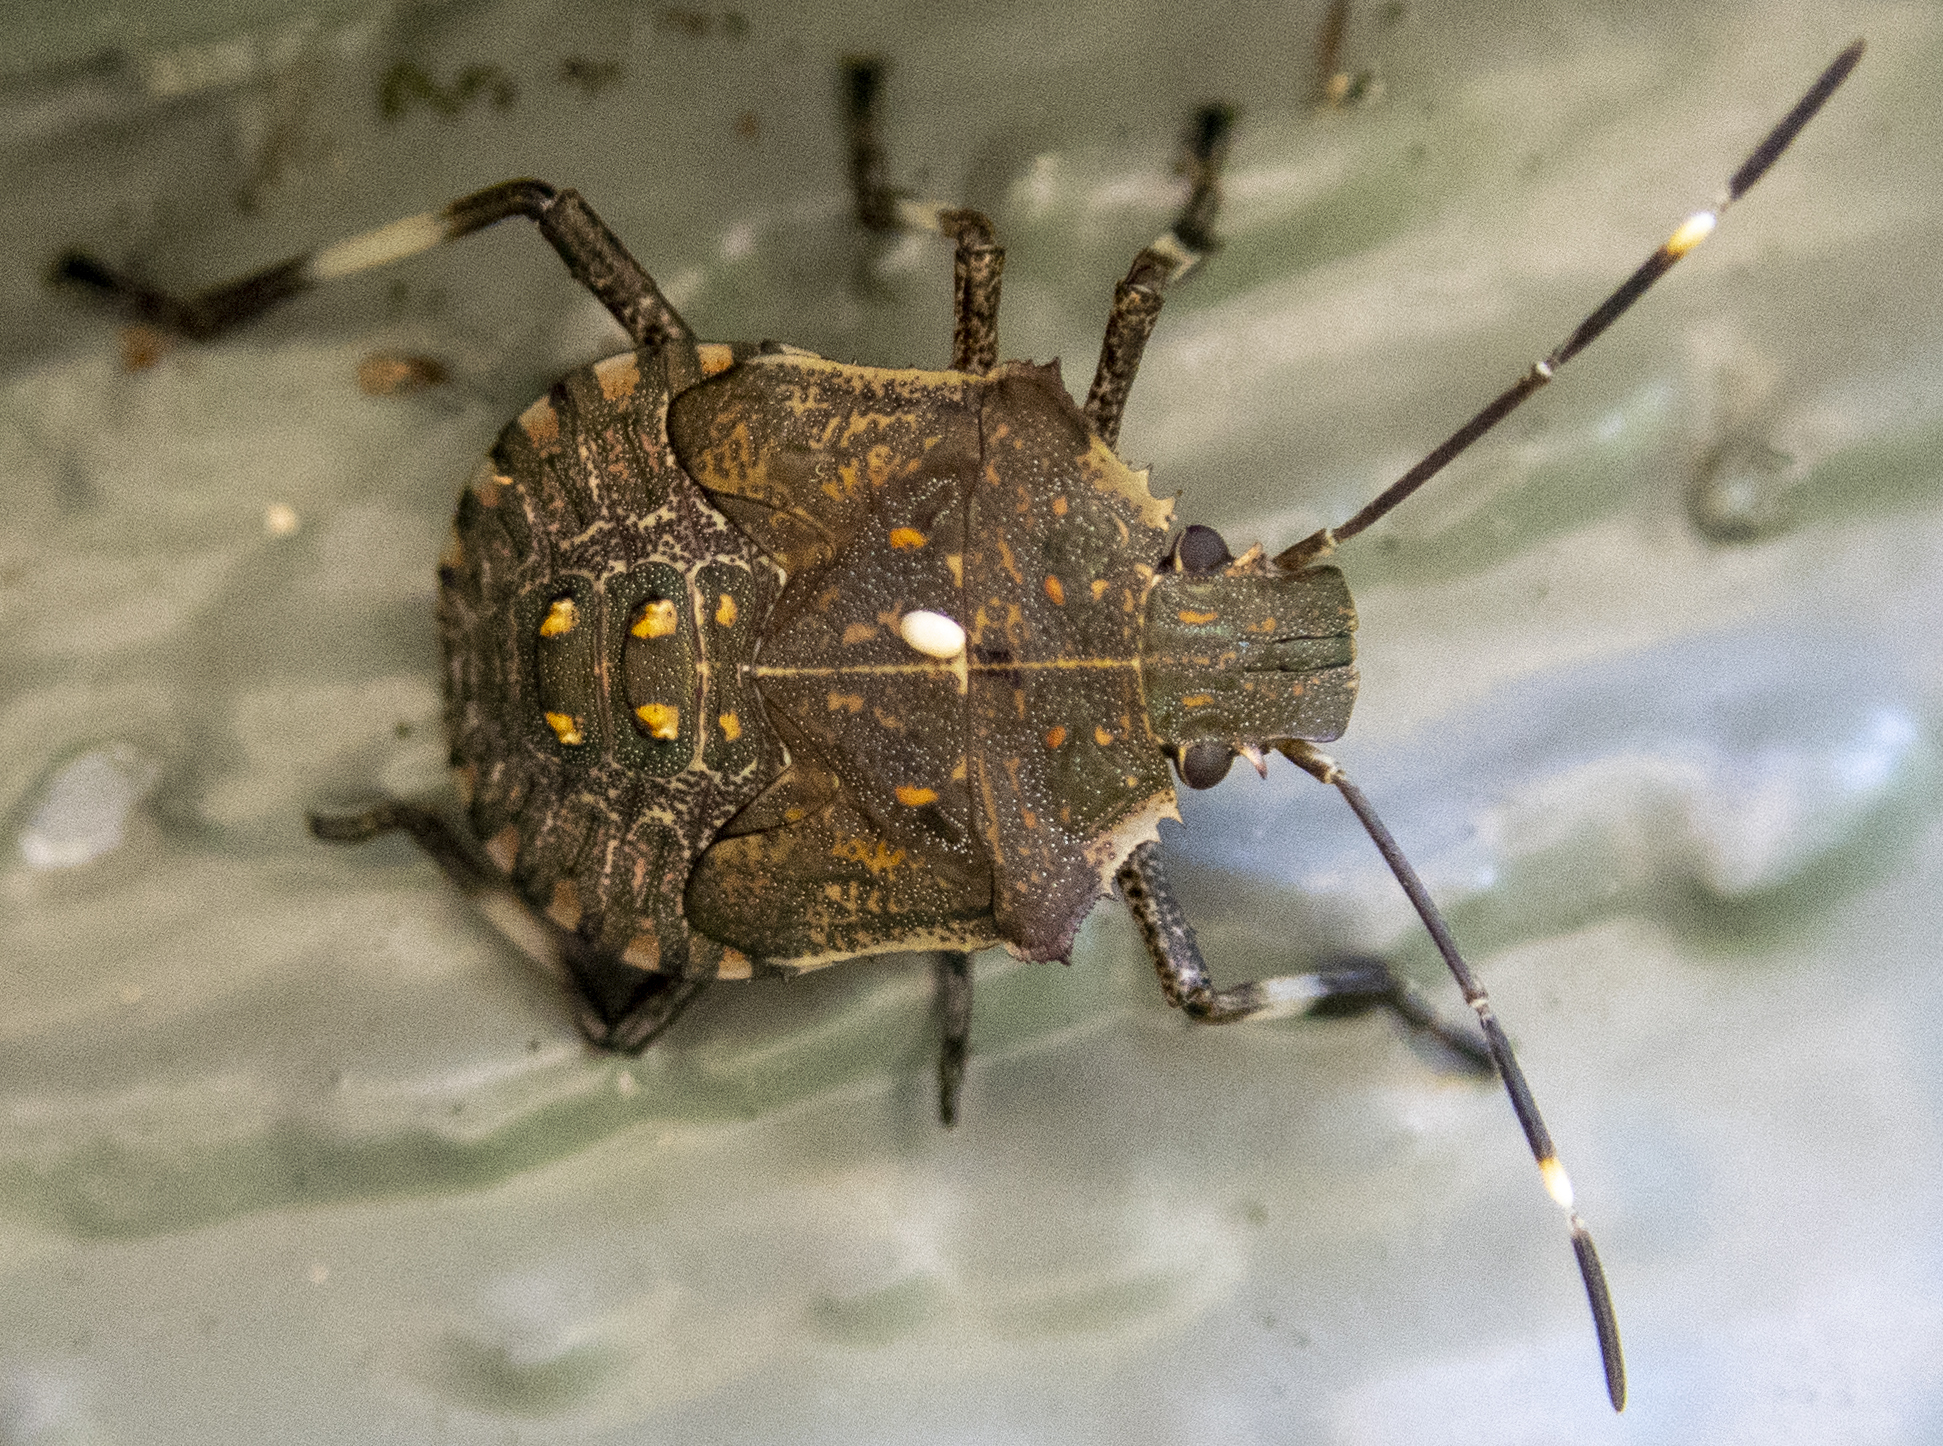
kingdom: Animalia
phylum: Arthropoda
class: Insecta
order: Hemiptera
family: Pentatomidae
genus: Halyomorpha
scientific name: Halyomorpha halys
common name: Brown marmorated stink bug
